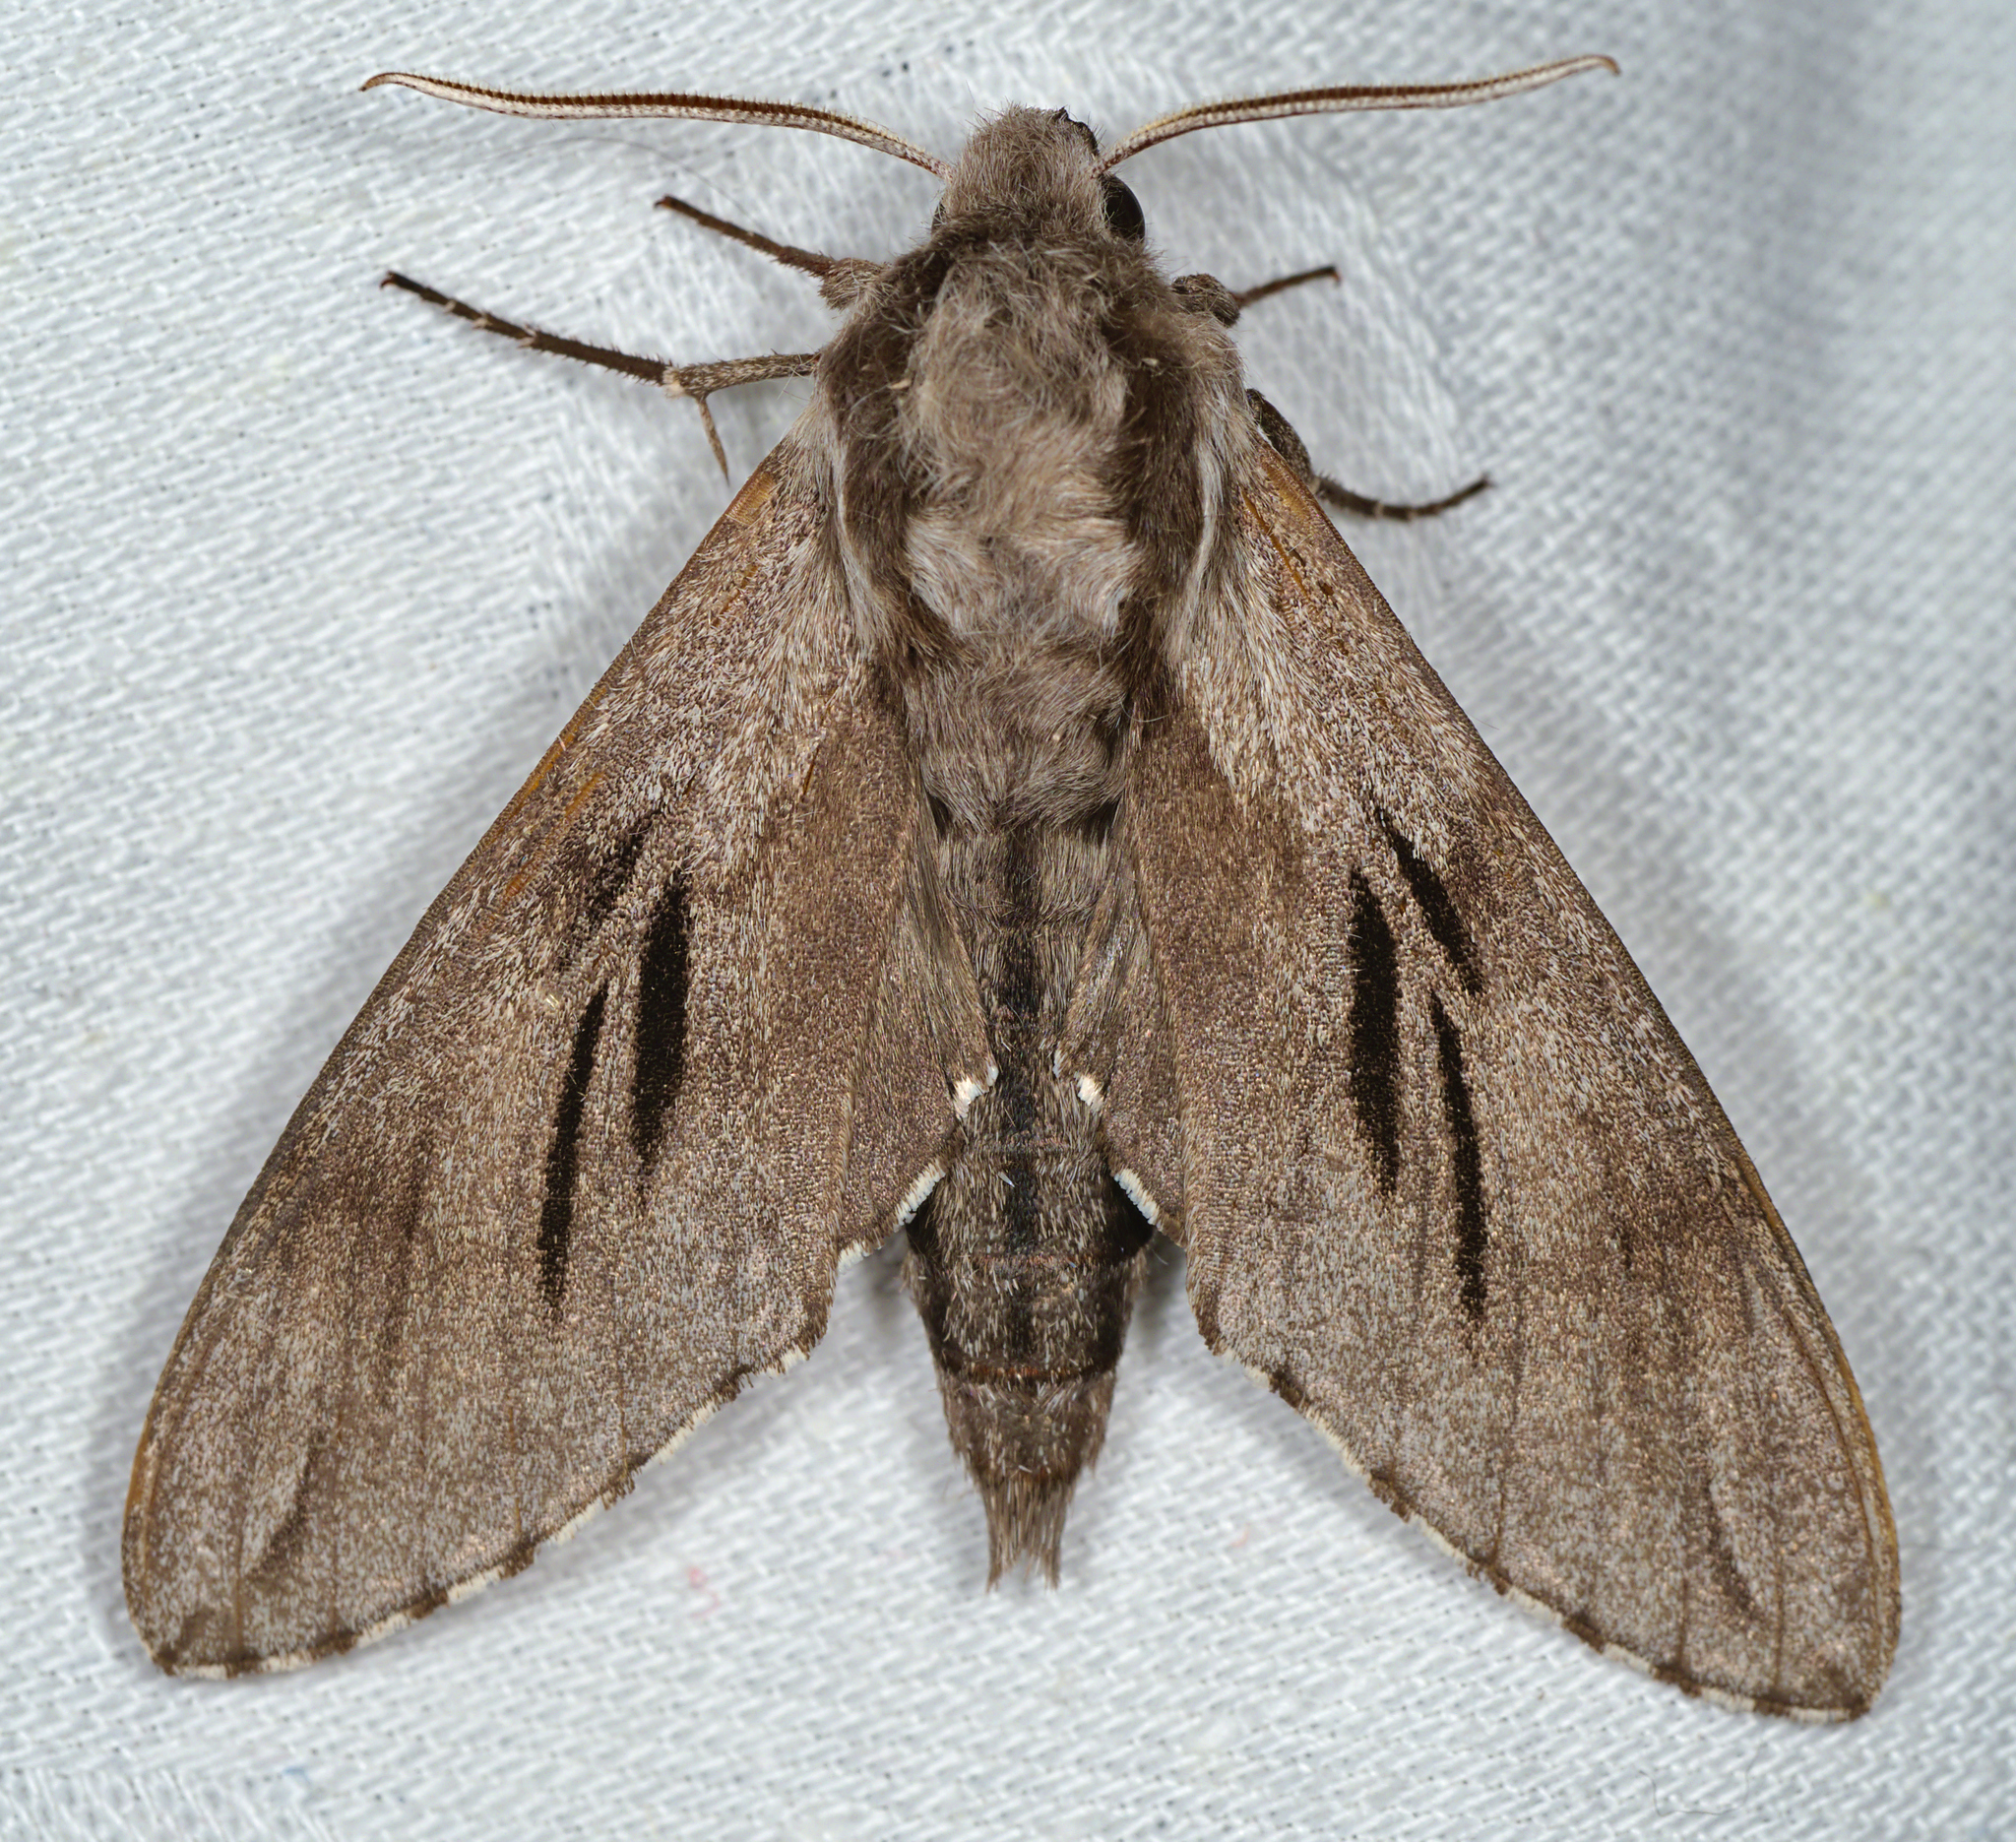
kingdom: Animalia
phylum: Arthropoda
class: Insecta
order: Lepidoptera
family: Sphingidae
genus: Sphinx
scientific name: Sphinx pinastri
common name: Pine hawk-moth
